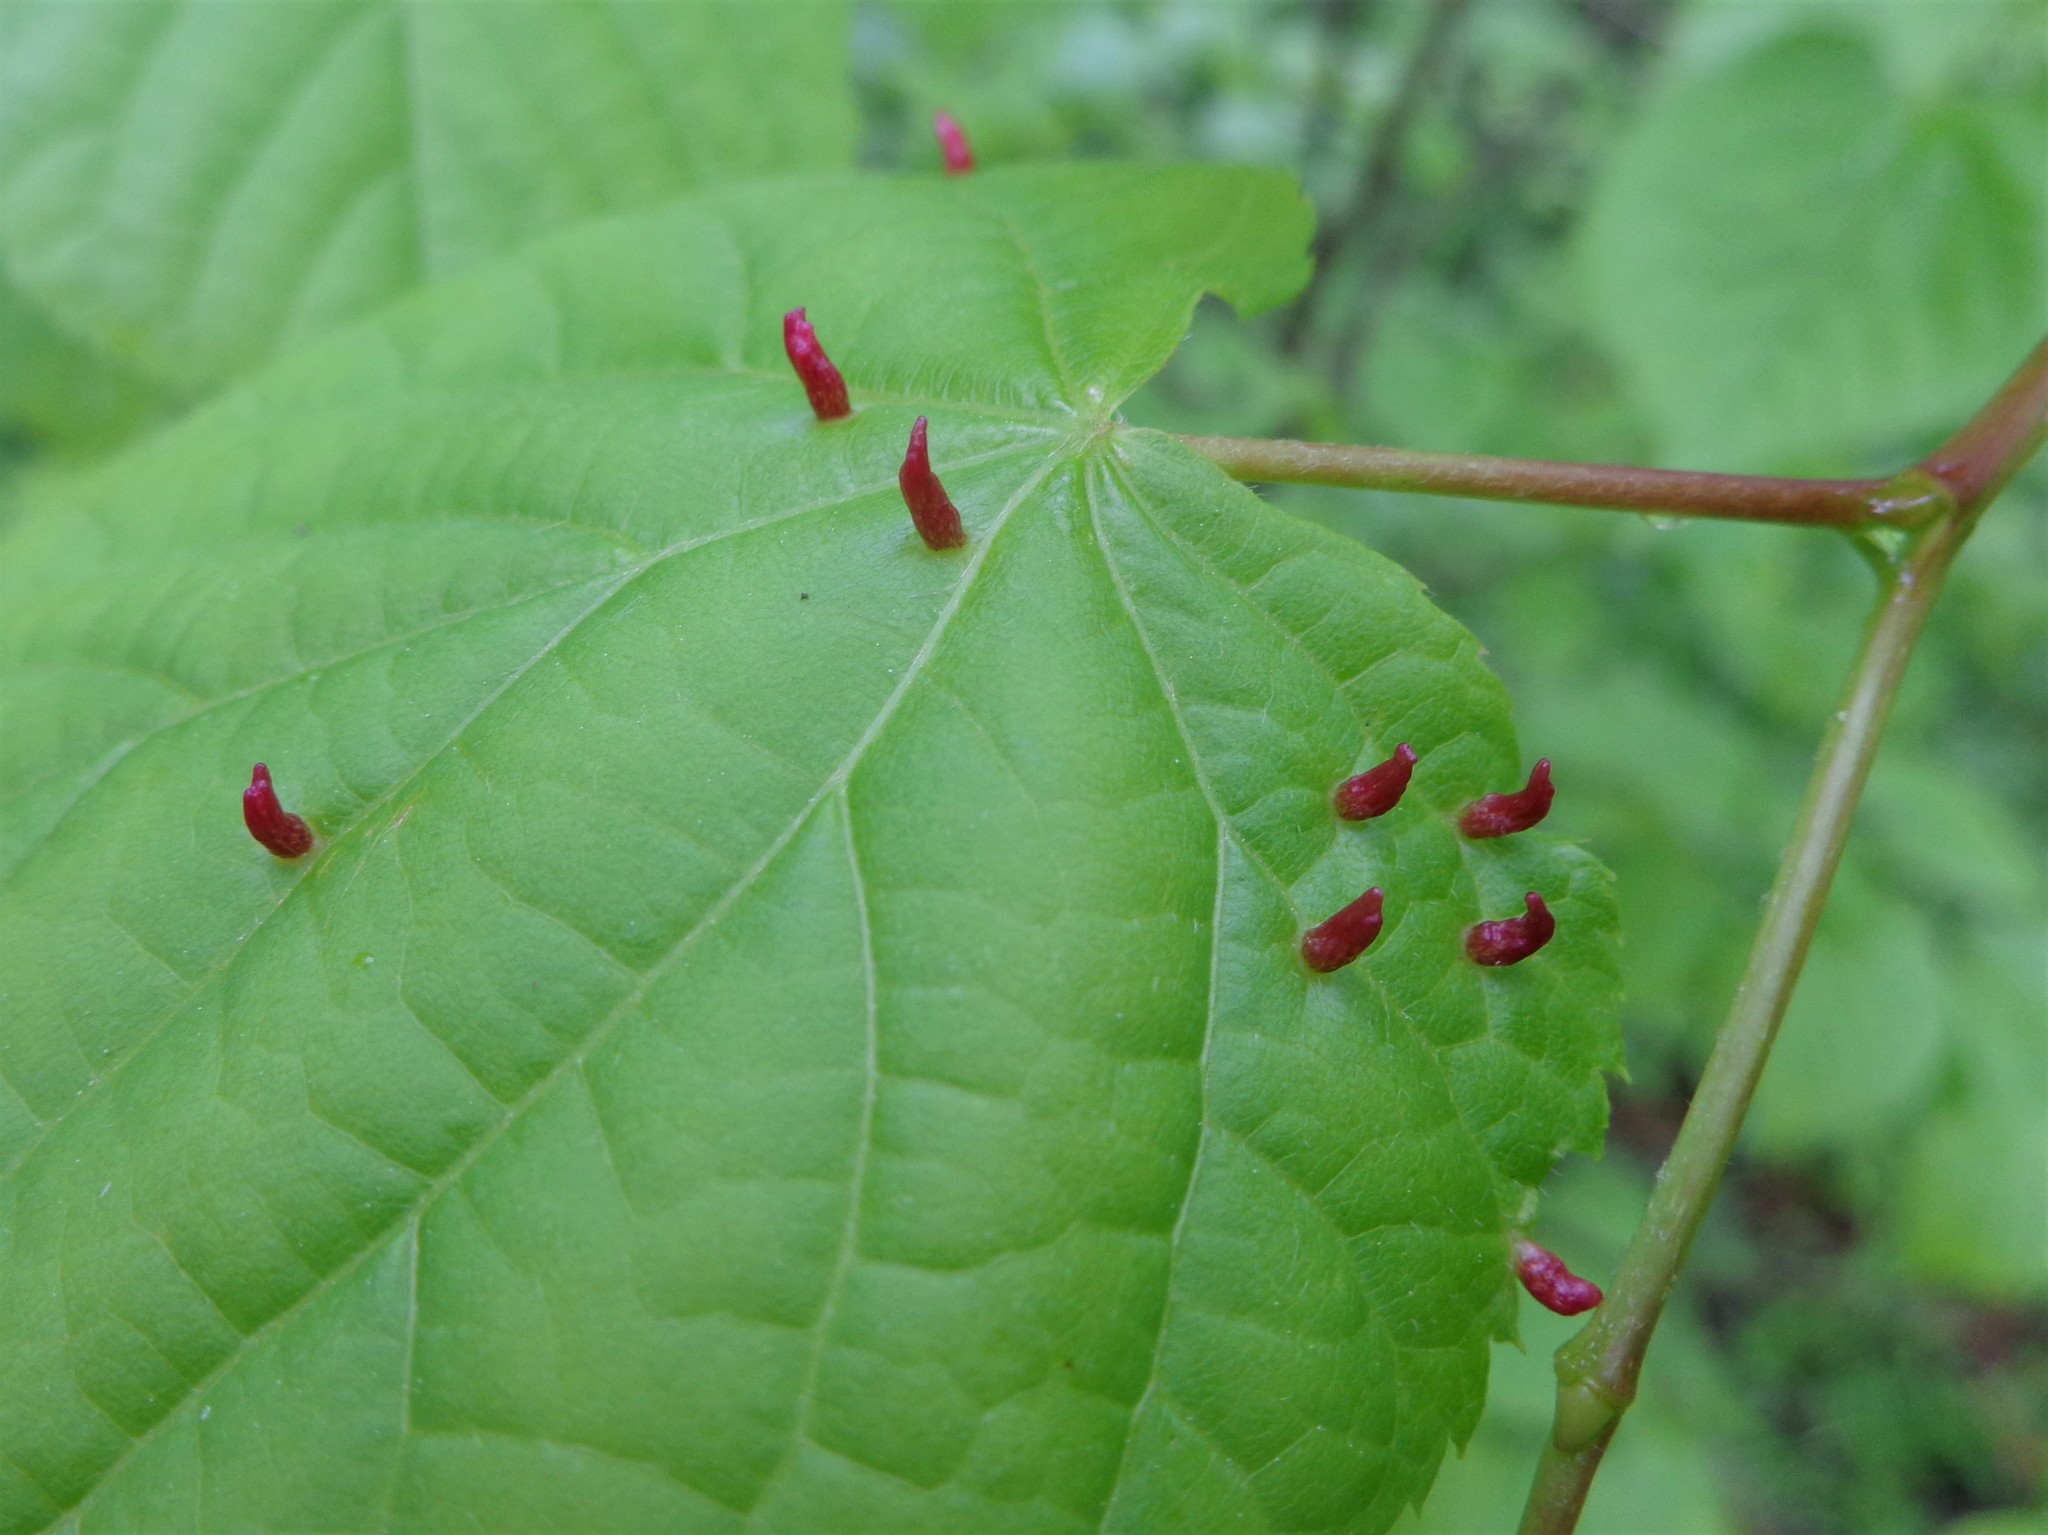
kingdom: Animalia
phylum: Arthropoda
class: Arachnida
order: Trombidiformes
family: Eriophyidae
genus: Eriophyes
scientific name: Eriophyes tiliae
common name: Red nail gall mite
